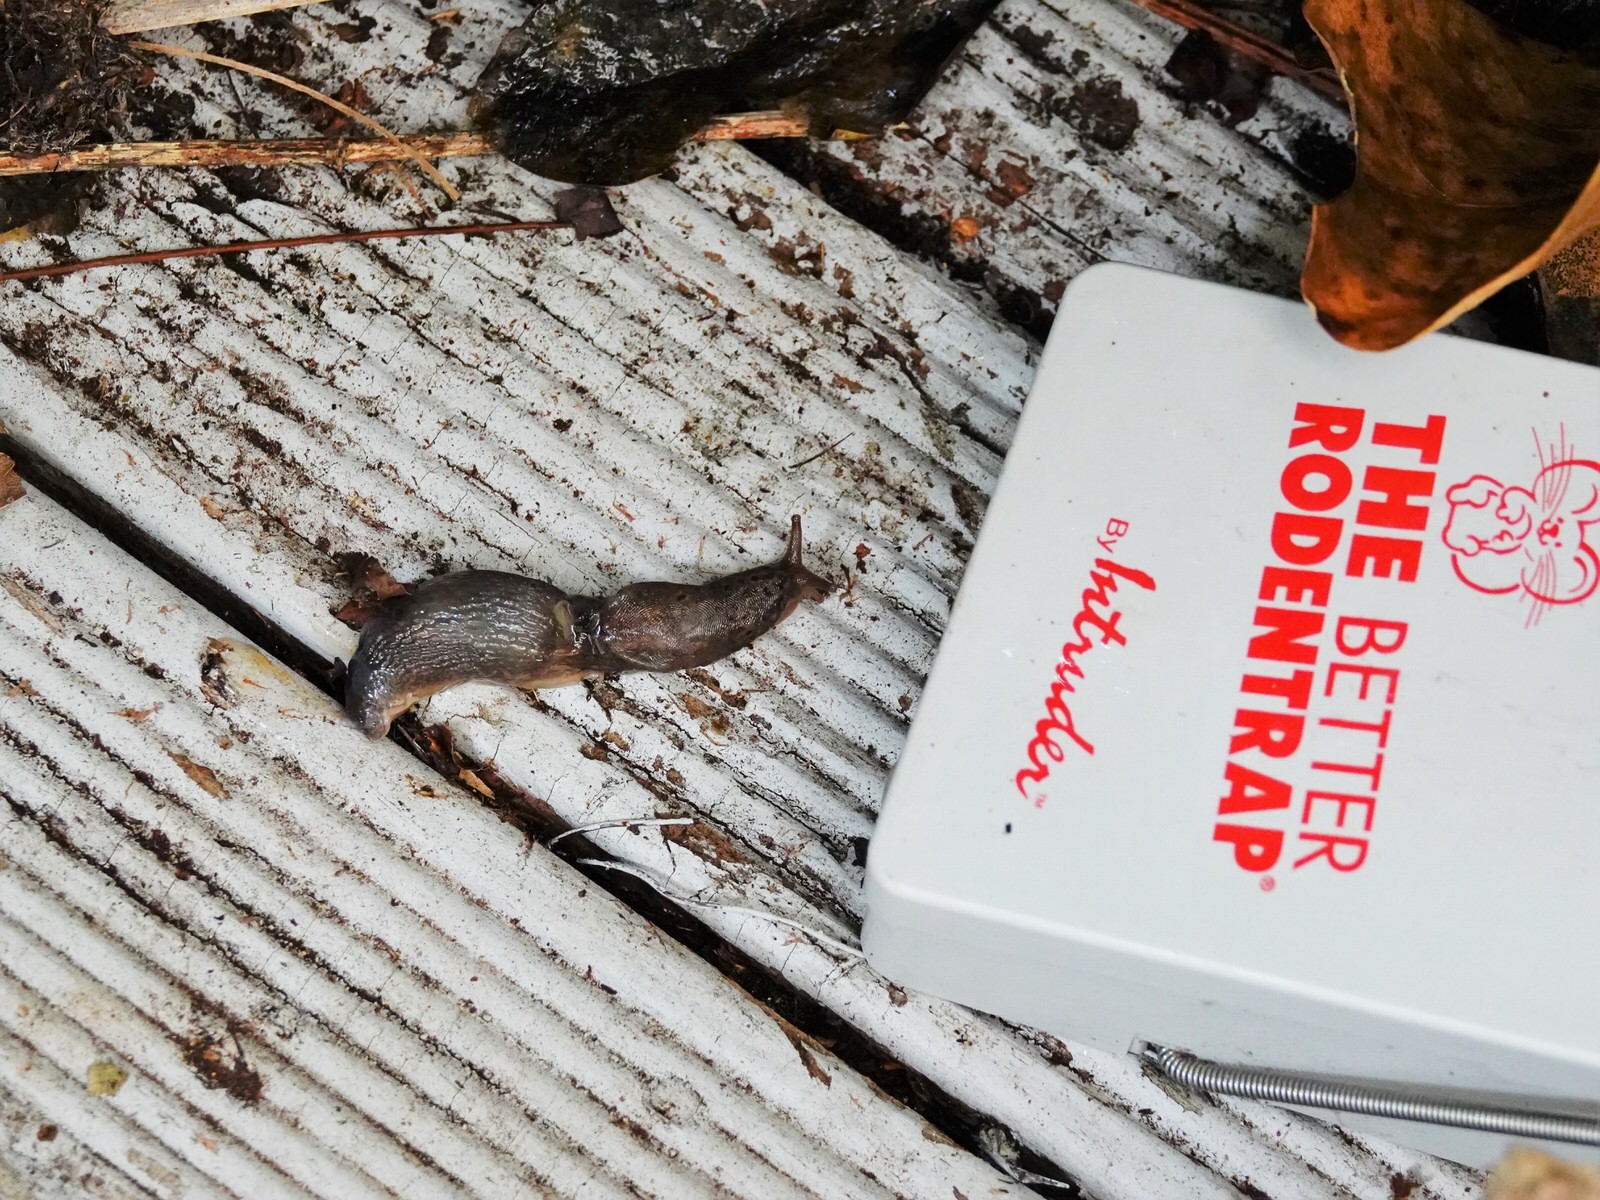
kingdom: Animalia
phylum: Mollusca
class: Gastropoda
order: Stylommatophora
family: Limacidae
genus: Limax
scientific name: Limax maximus
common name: Great grey slug
